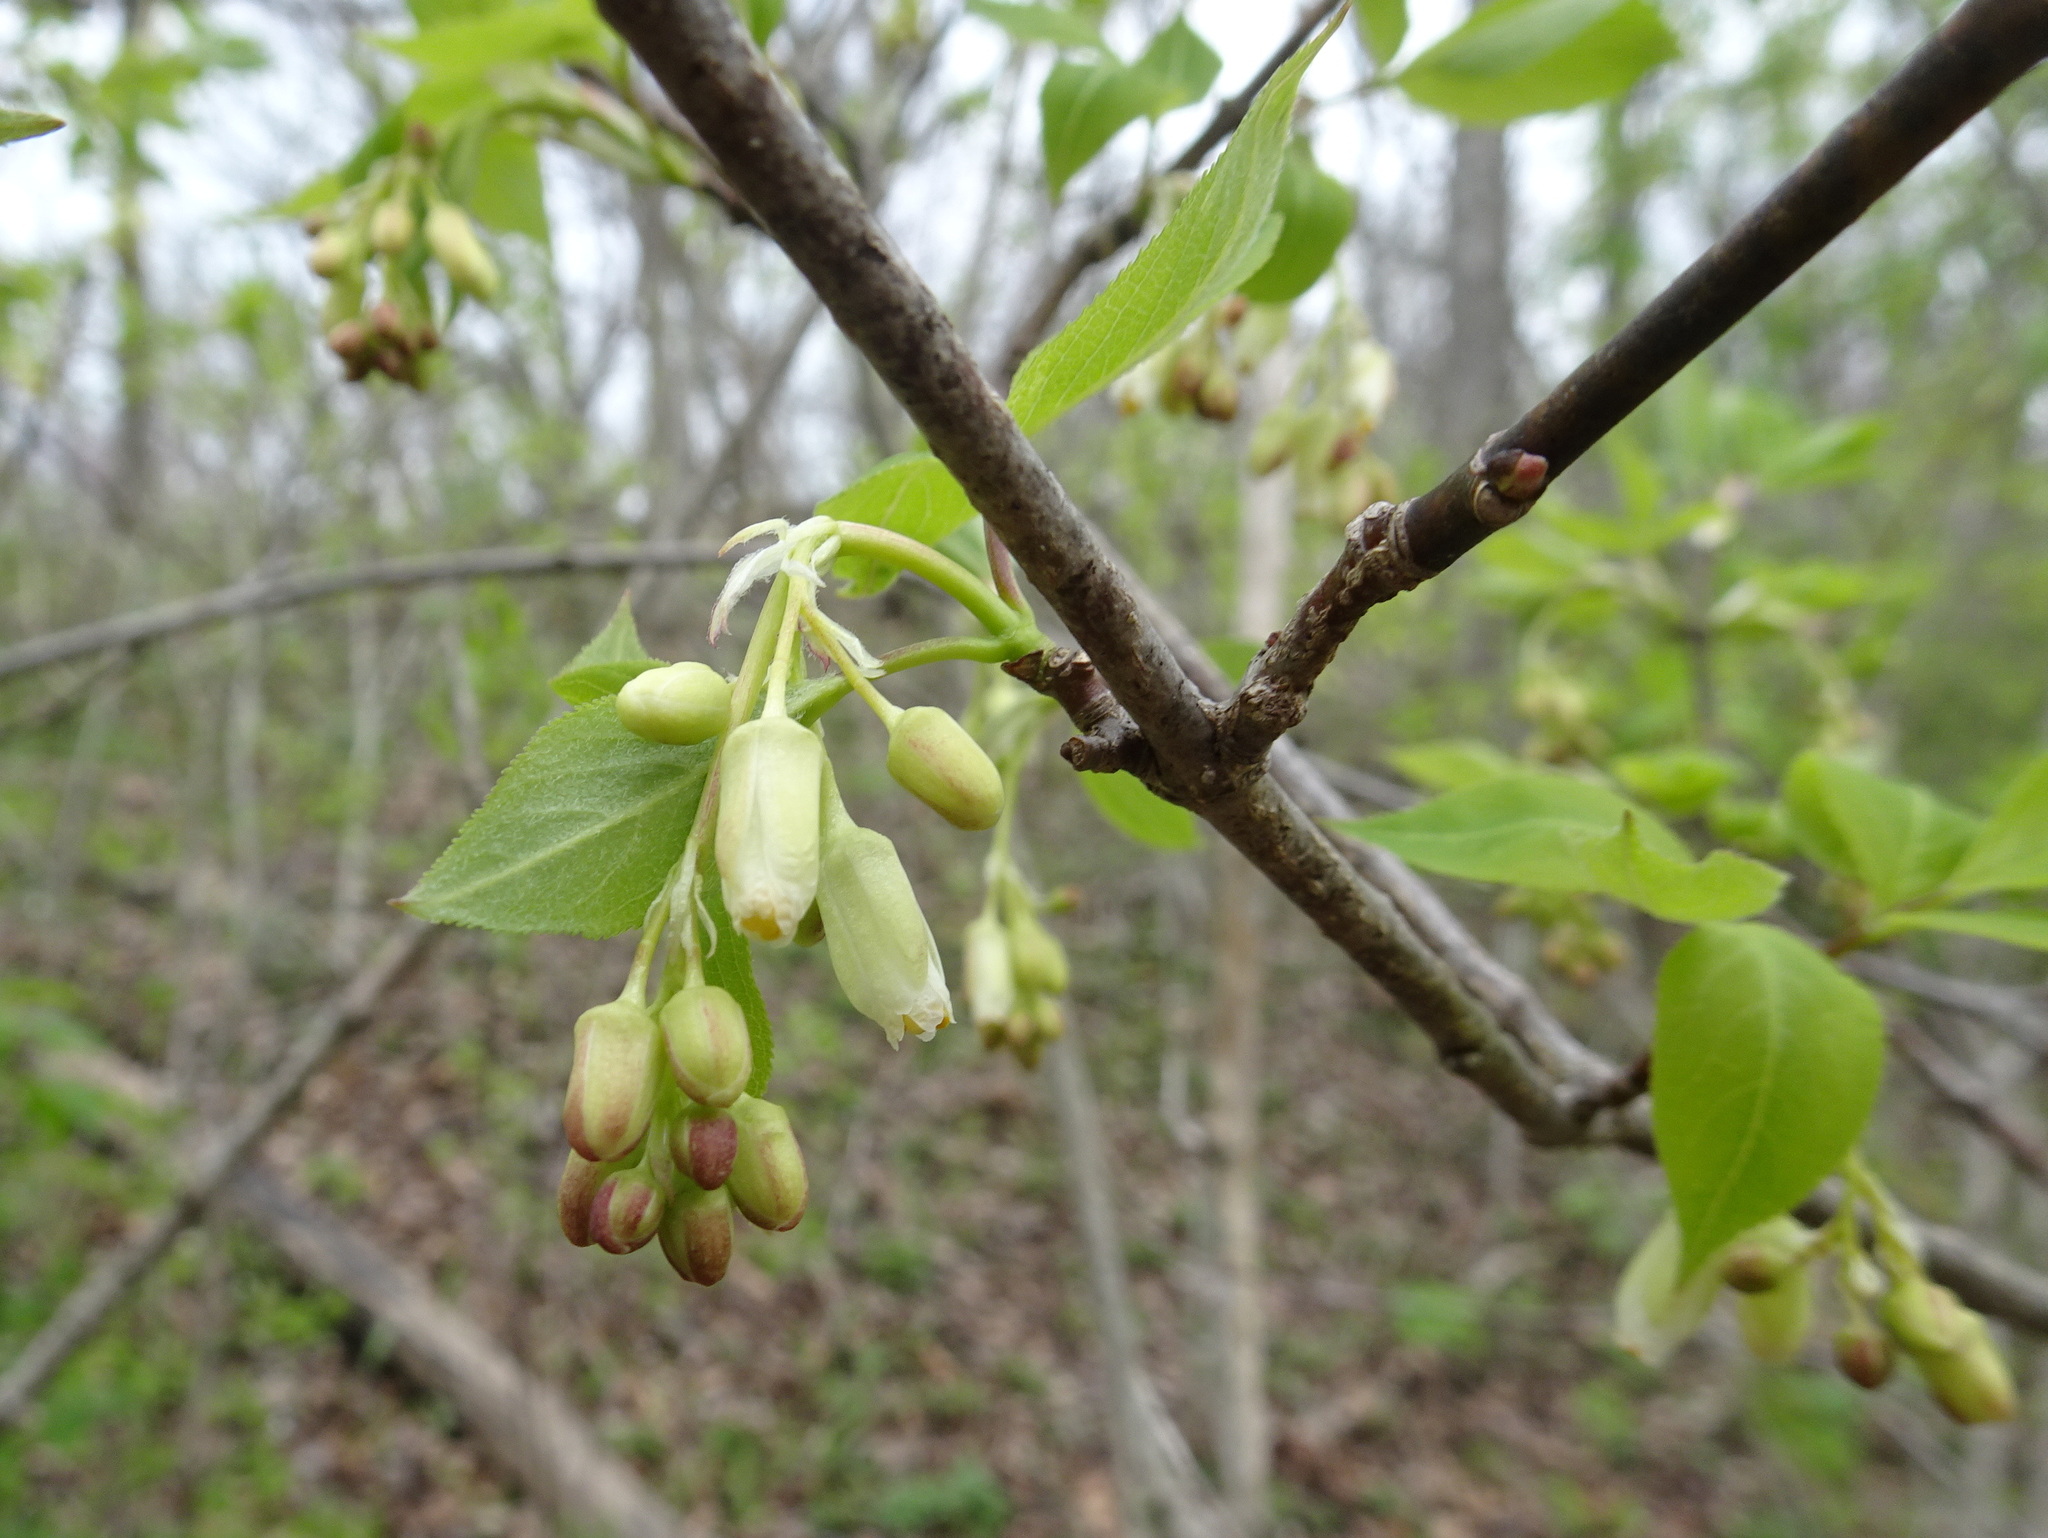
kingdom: Plantae
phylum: Tracheophyta
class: Magnoliopsida
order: Crossosomatales
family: Staphyleaceae
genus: Staphylea
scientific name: Staphylea trifolia
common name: American bladdernut
